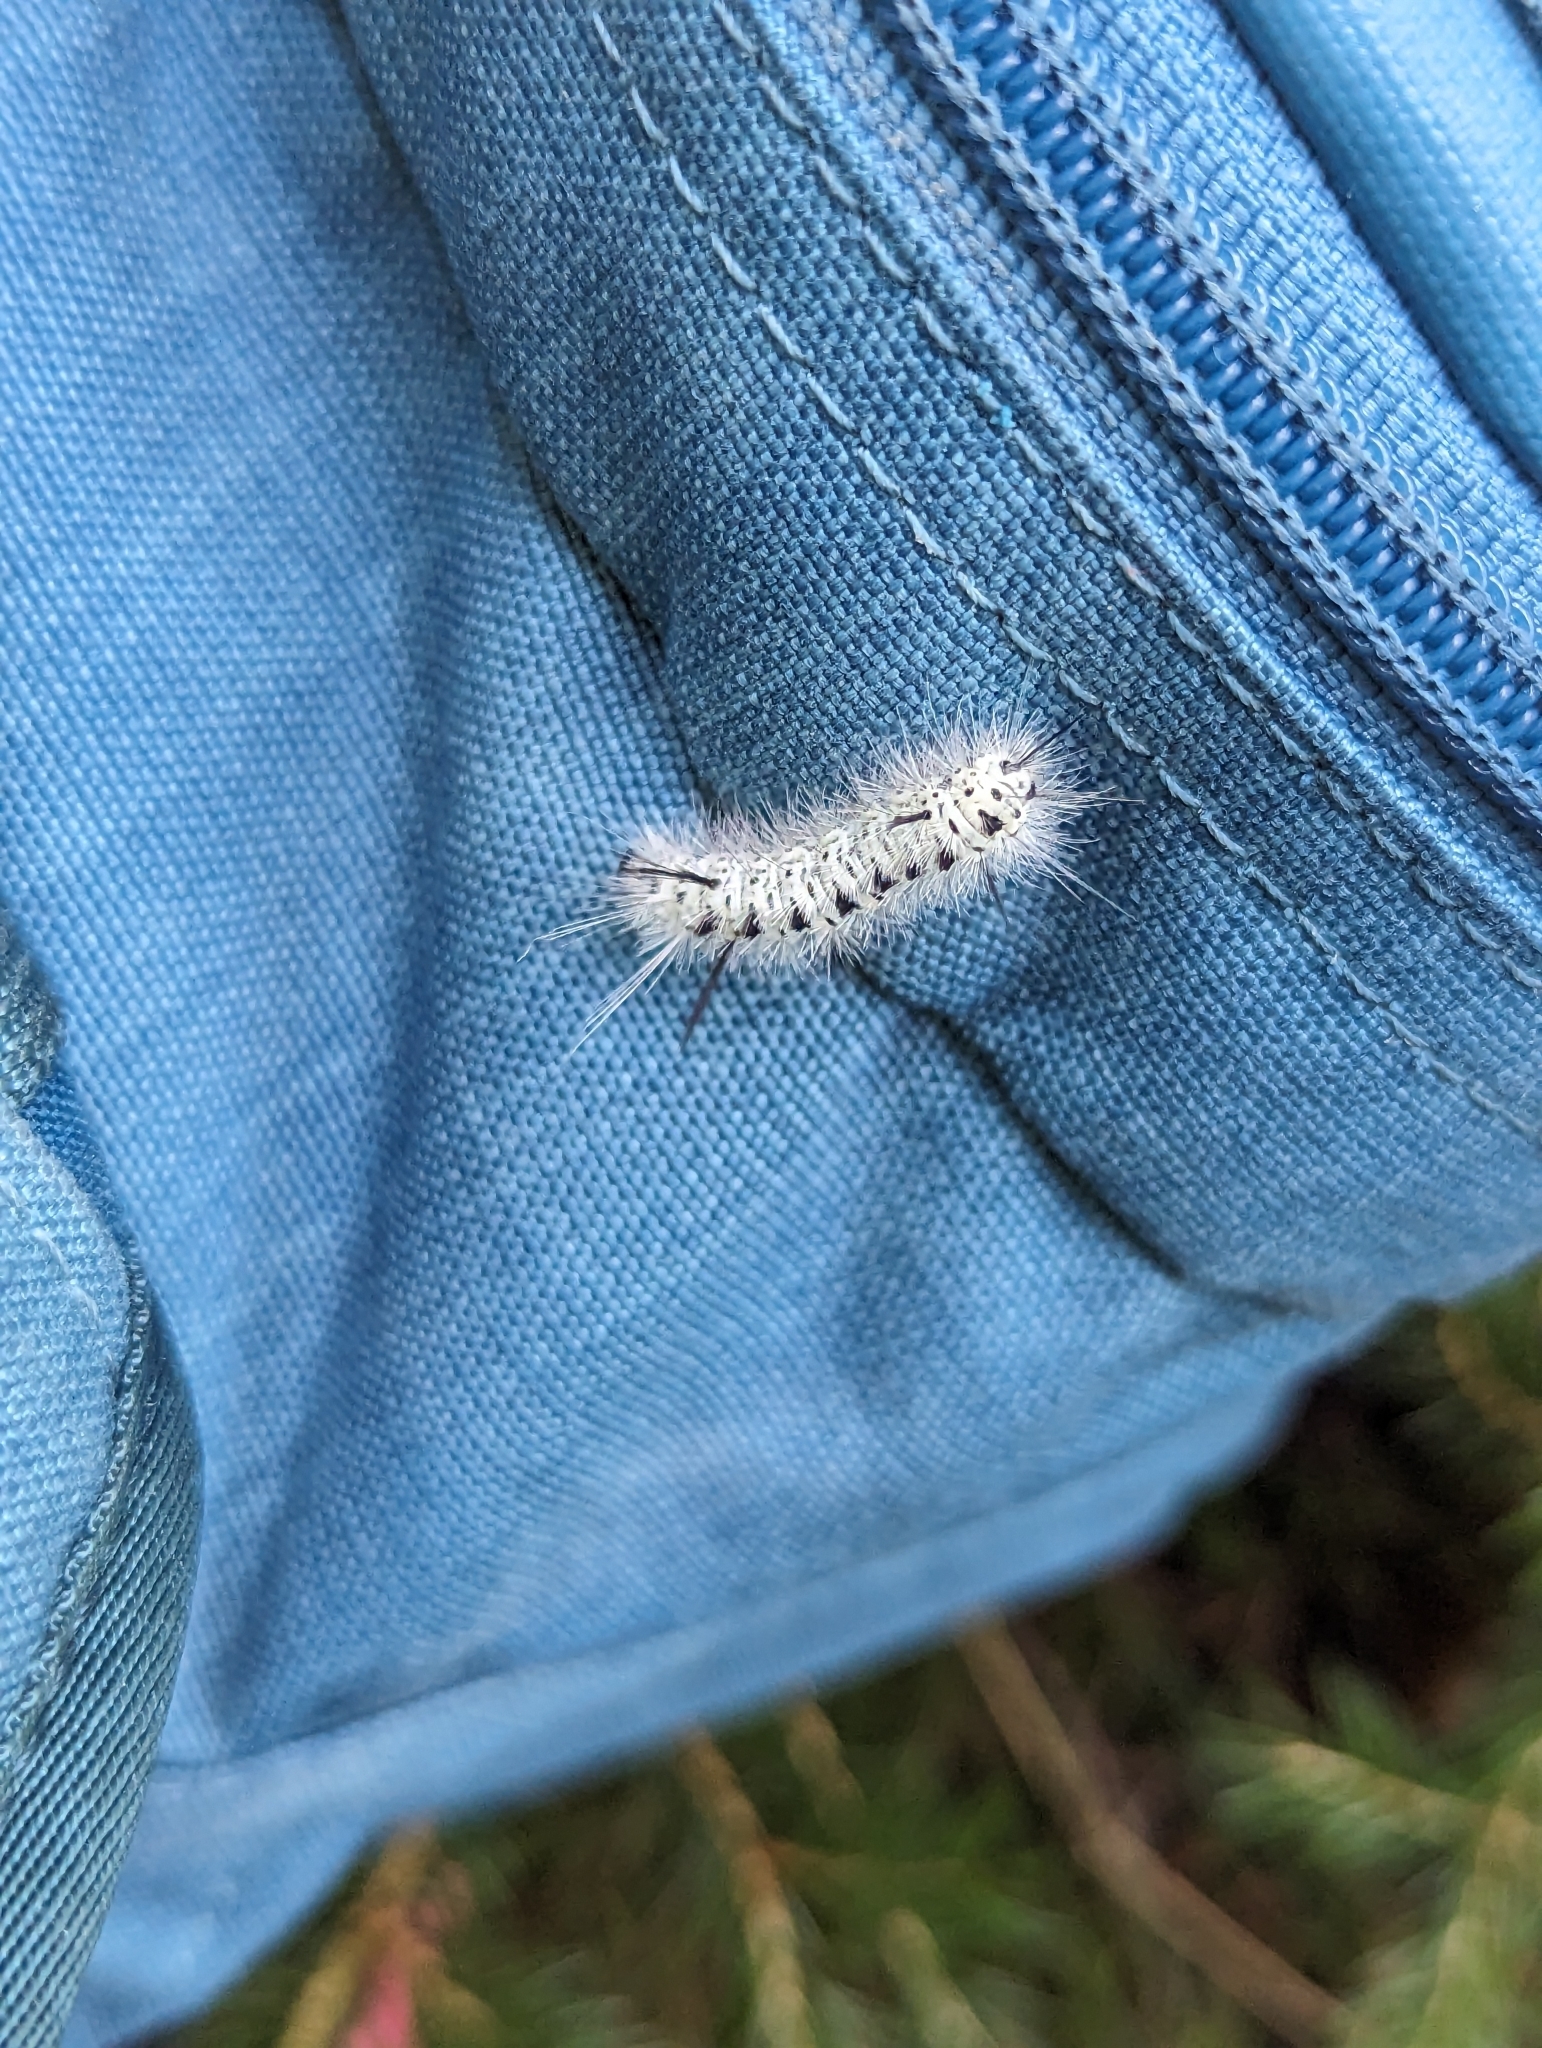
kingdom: Animalia
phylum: Arthropoda
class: Insecta
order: Lepidoptera
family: Erebidae
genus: Lophocampa
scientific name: Lophocampa caryae
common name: Hickory tussock moth
